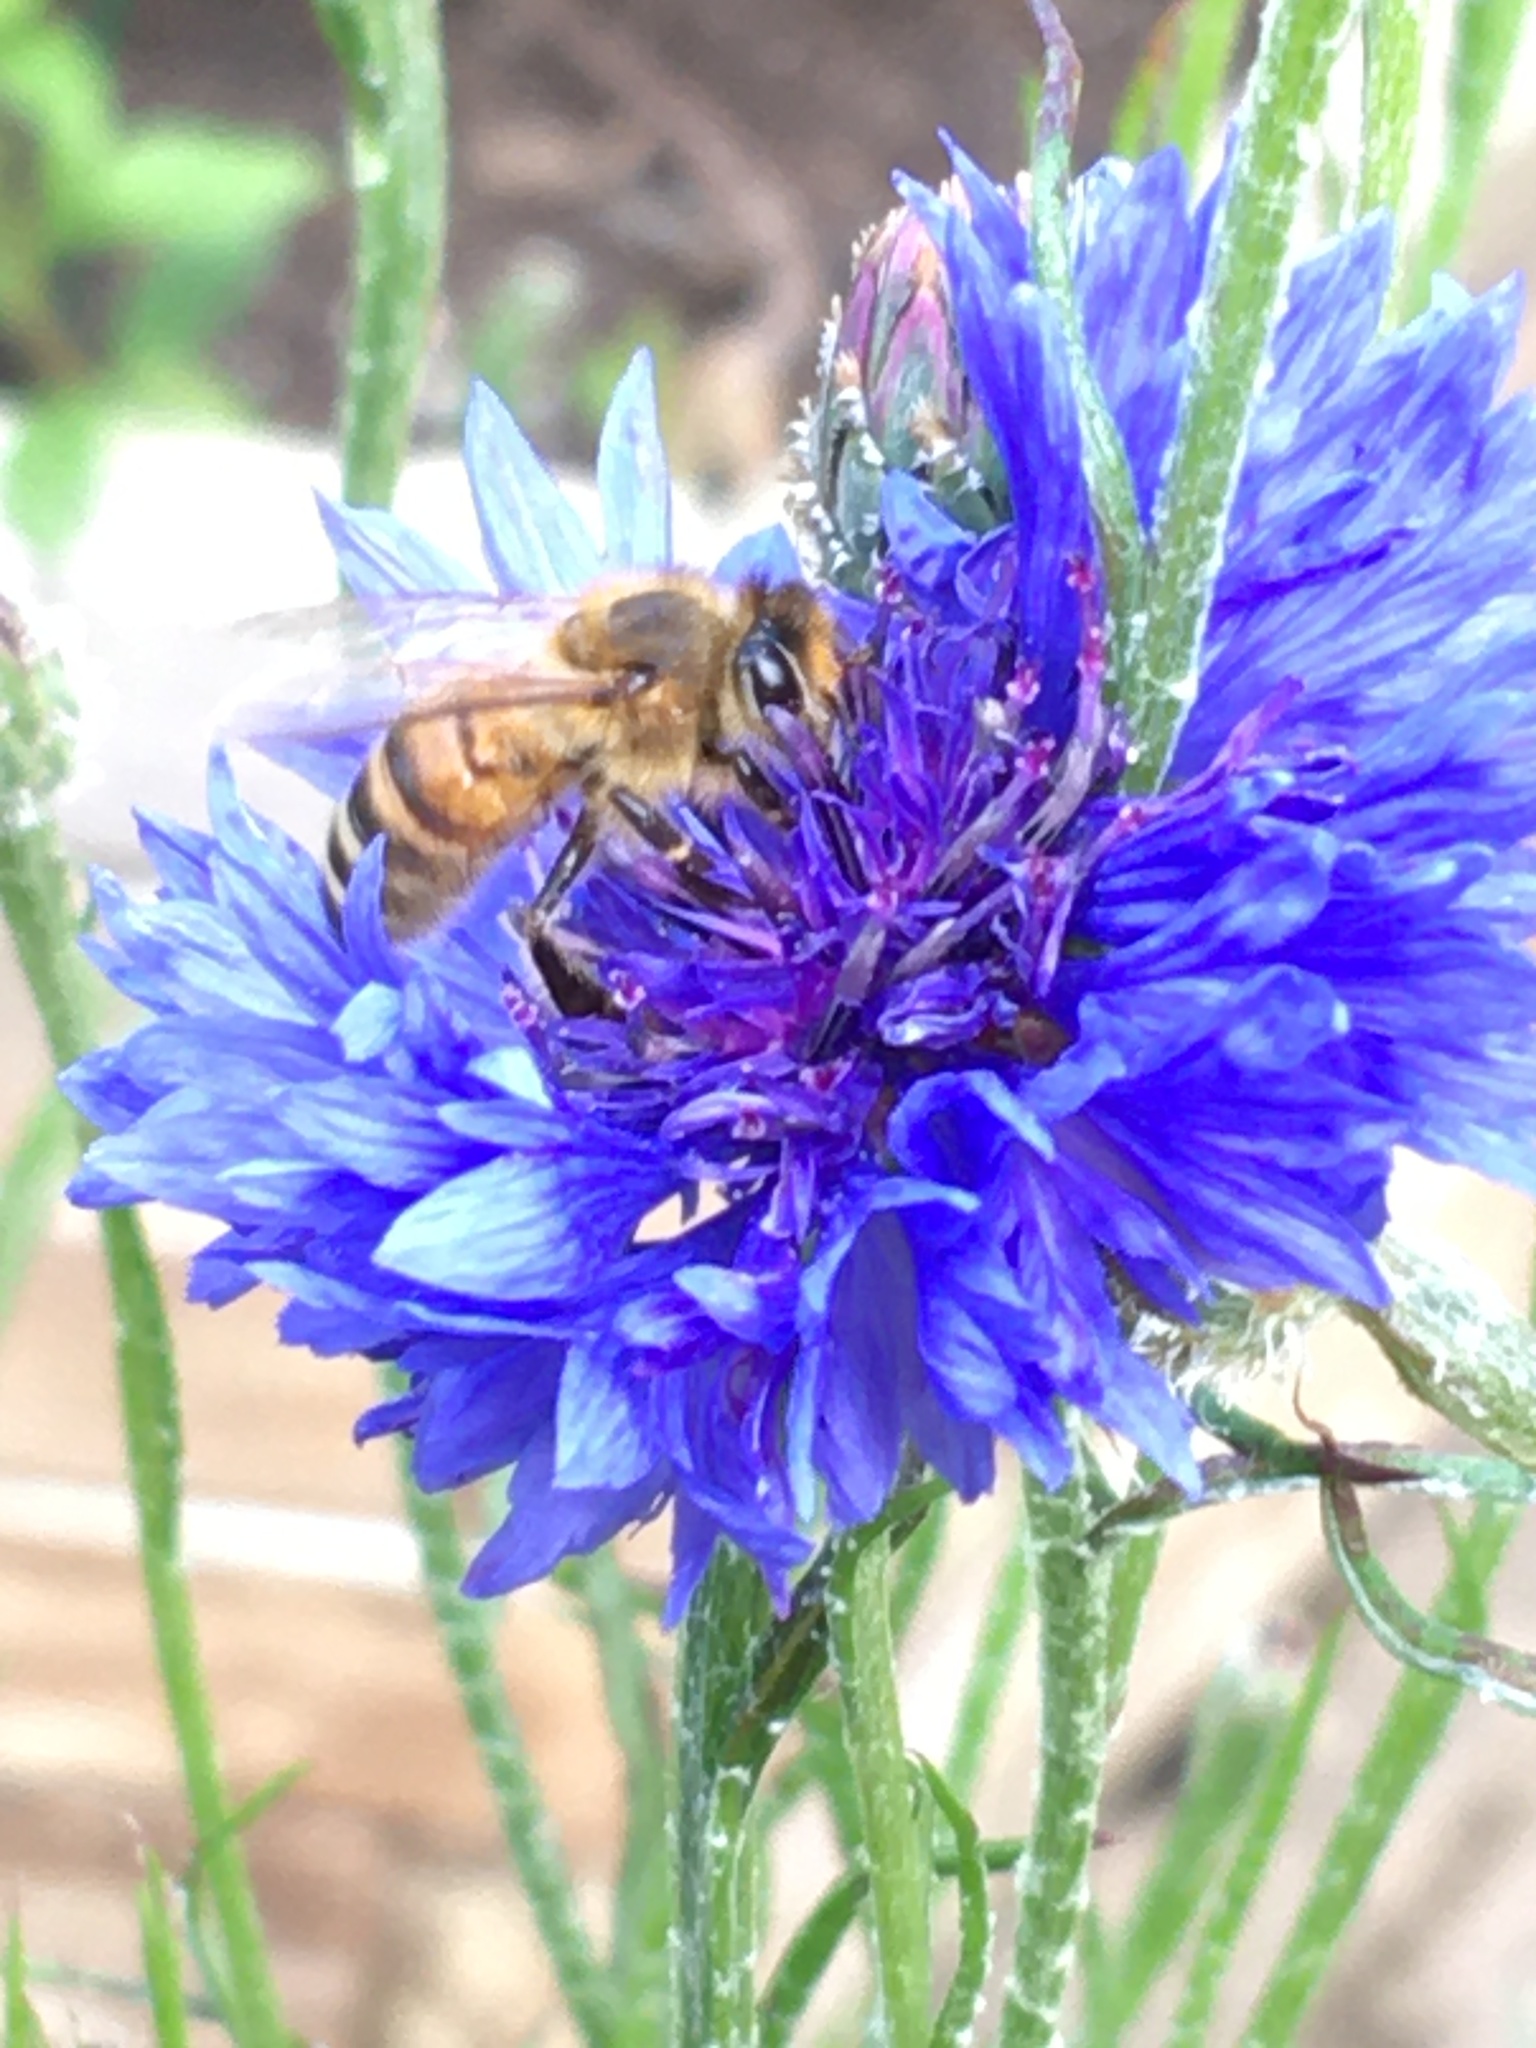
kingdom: Animalia
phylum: Arthropoda
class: Insecta
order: Hymenoptera
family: Apidae
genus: Apis
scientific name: Apis mellifera
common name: Honey bee
